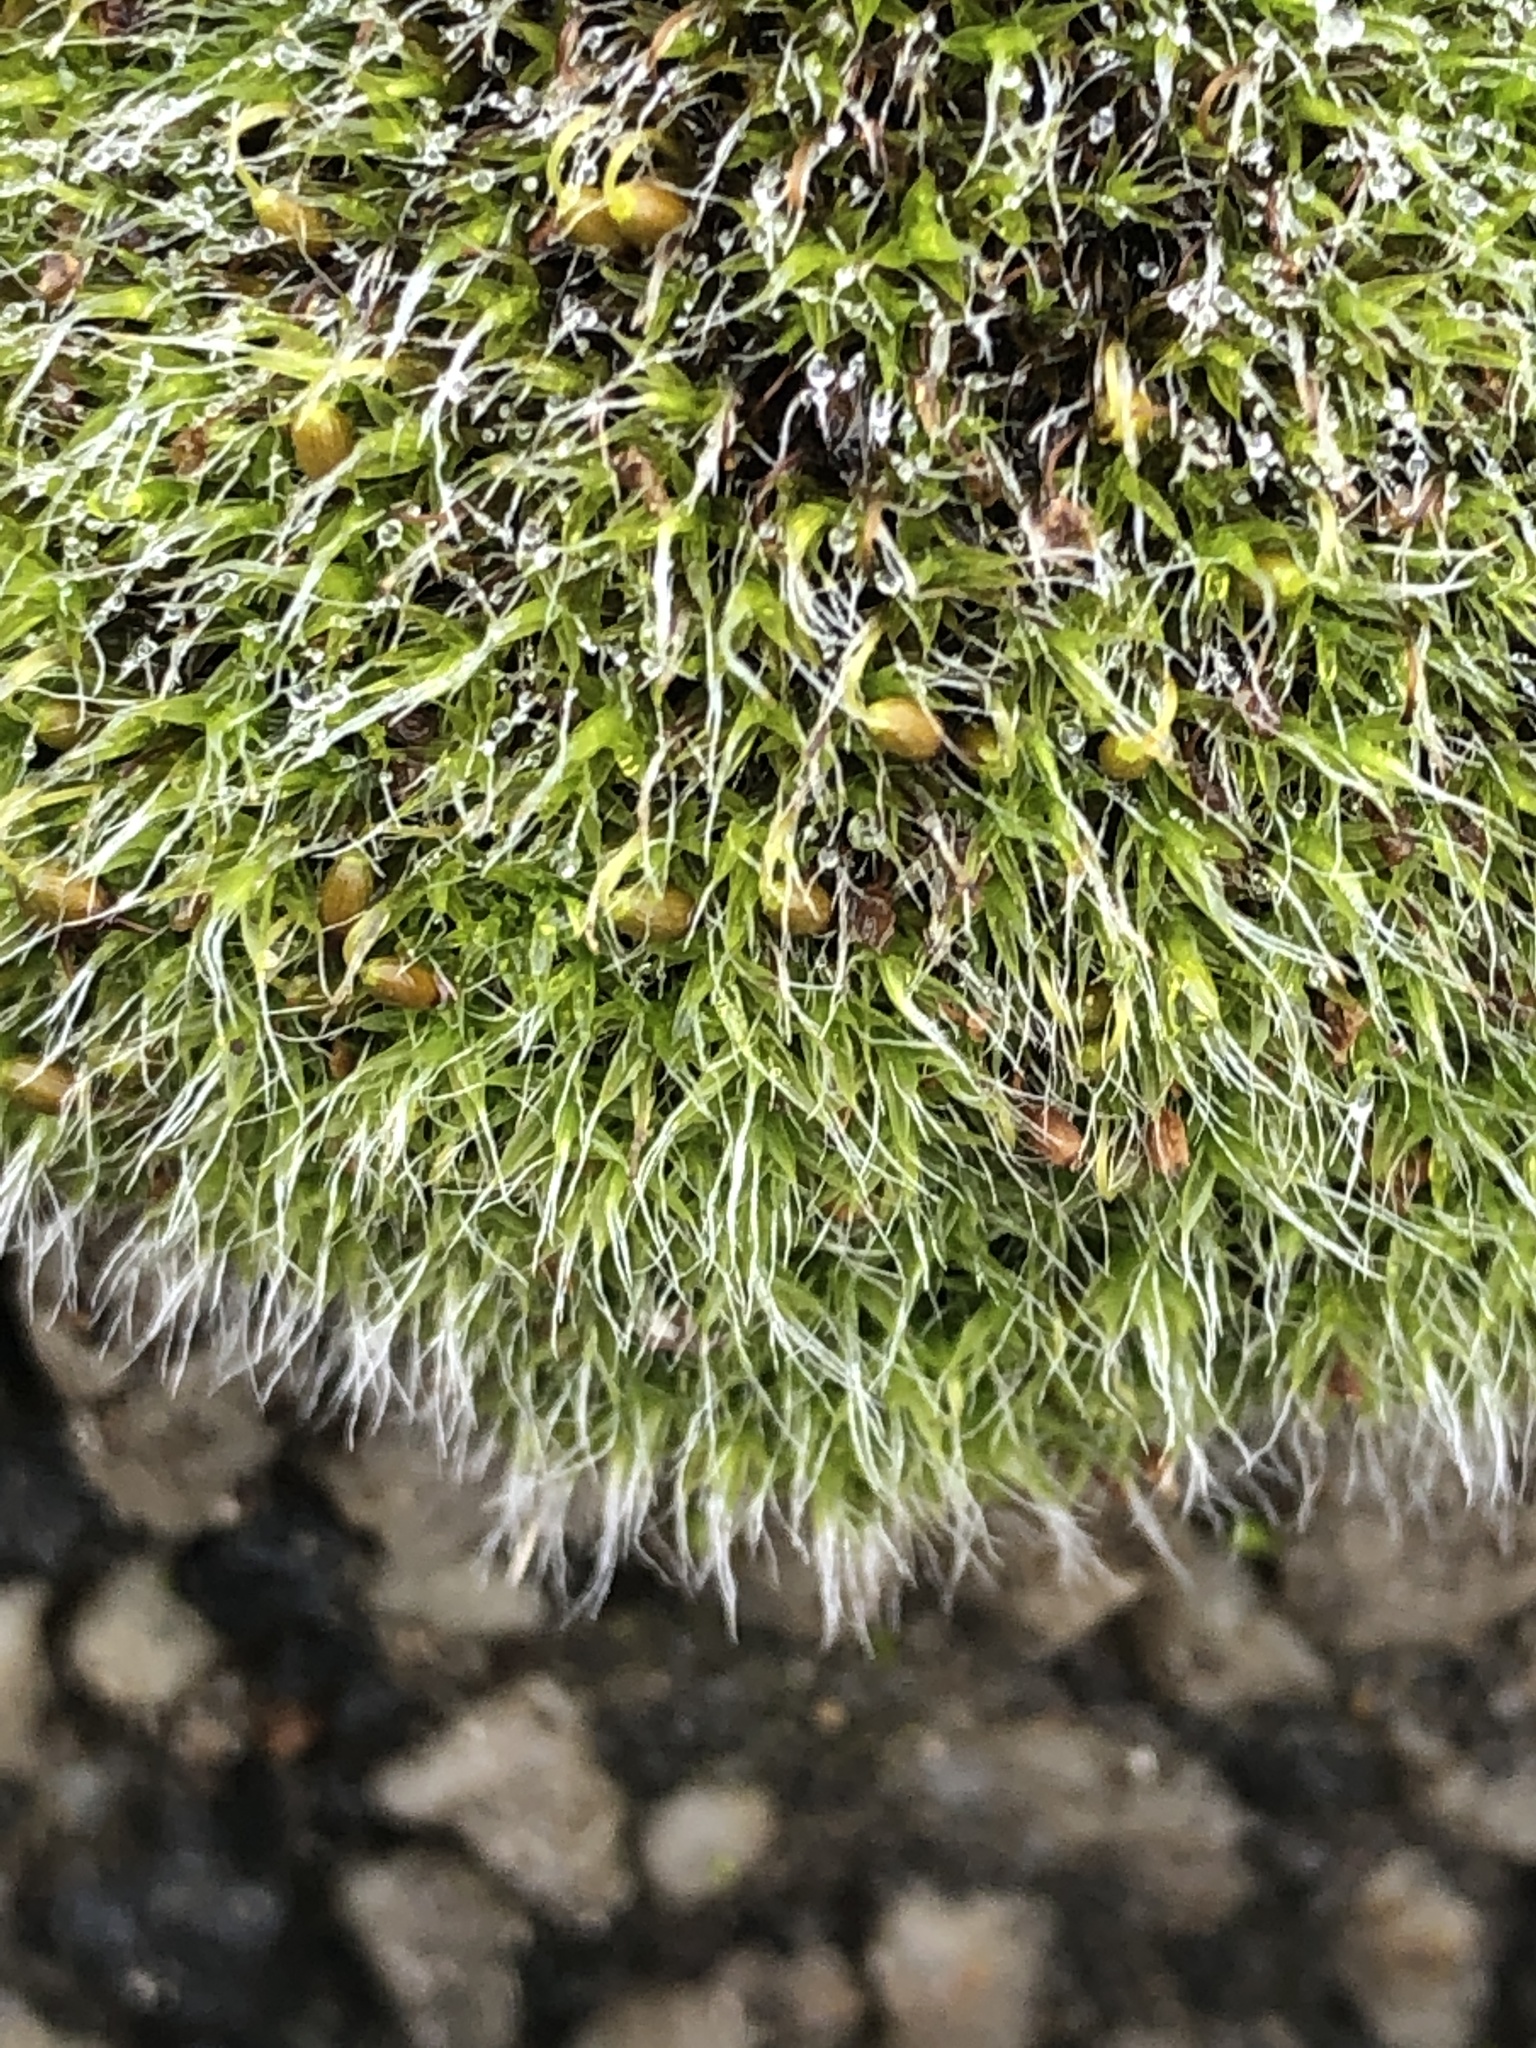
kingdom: Plantae
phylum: Bryophyta
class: Bryopsida
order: Grimmiales
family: Grimmiaceae
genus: Grimmia
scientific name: Grimmia pulvinata
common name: Grey-cushioned grimmia
